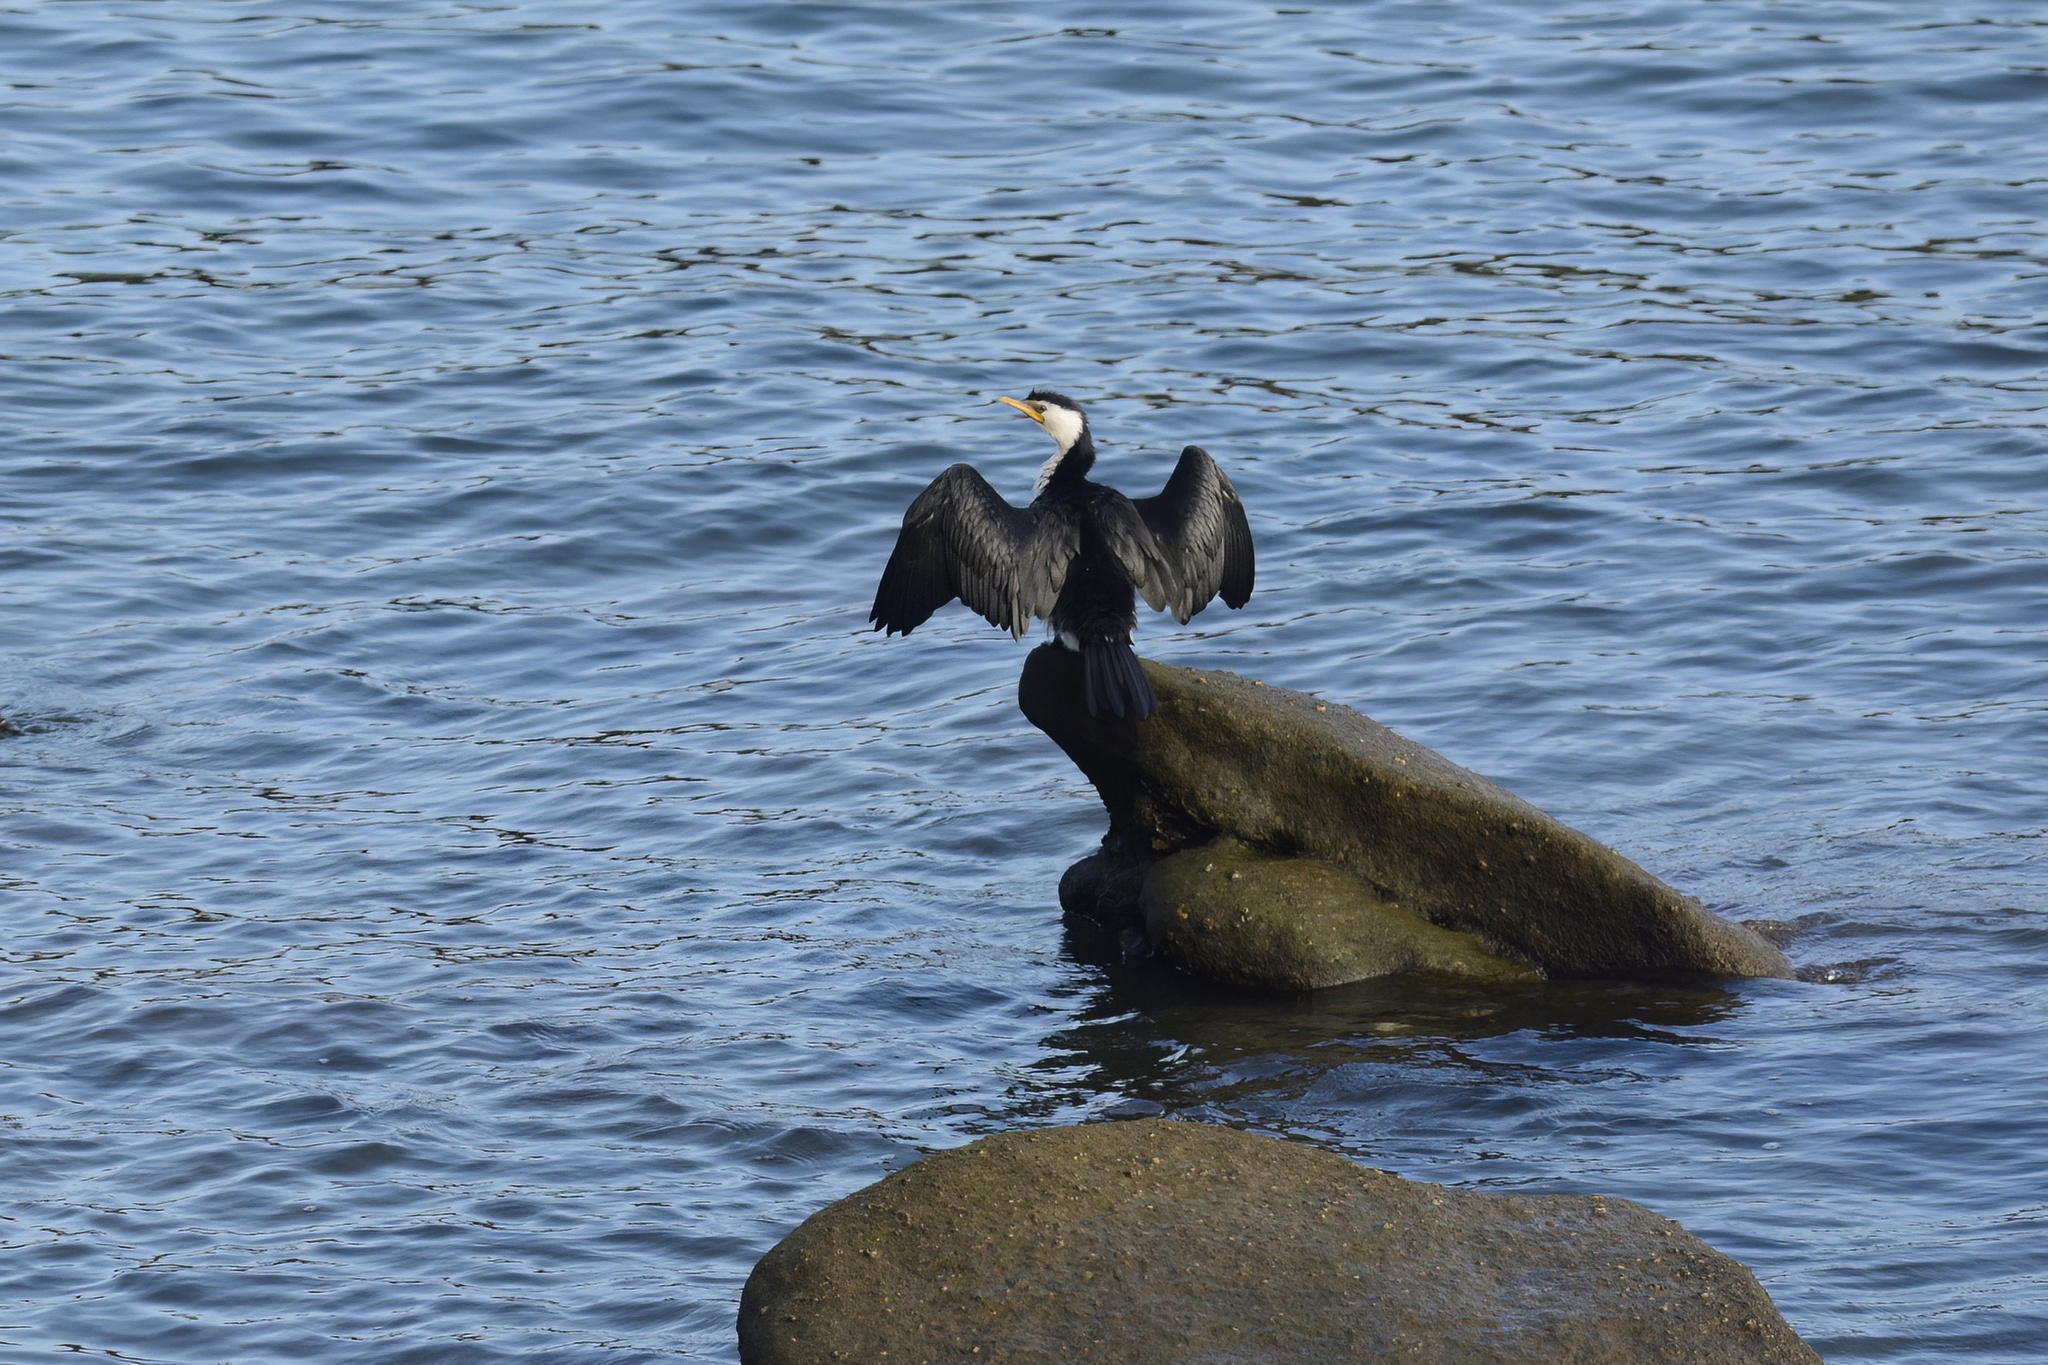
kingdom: Animalia
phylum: Chordata
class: Aves
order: Suliformes
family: Phalacrocoracidae
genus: Microcarbo
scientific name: Microcarbo melanoleucos
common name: Little pied cormorant
